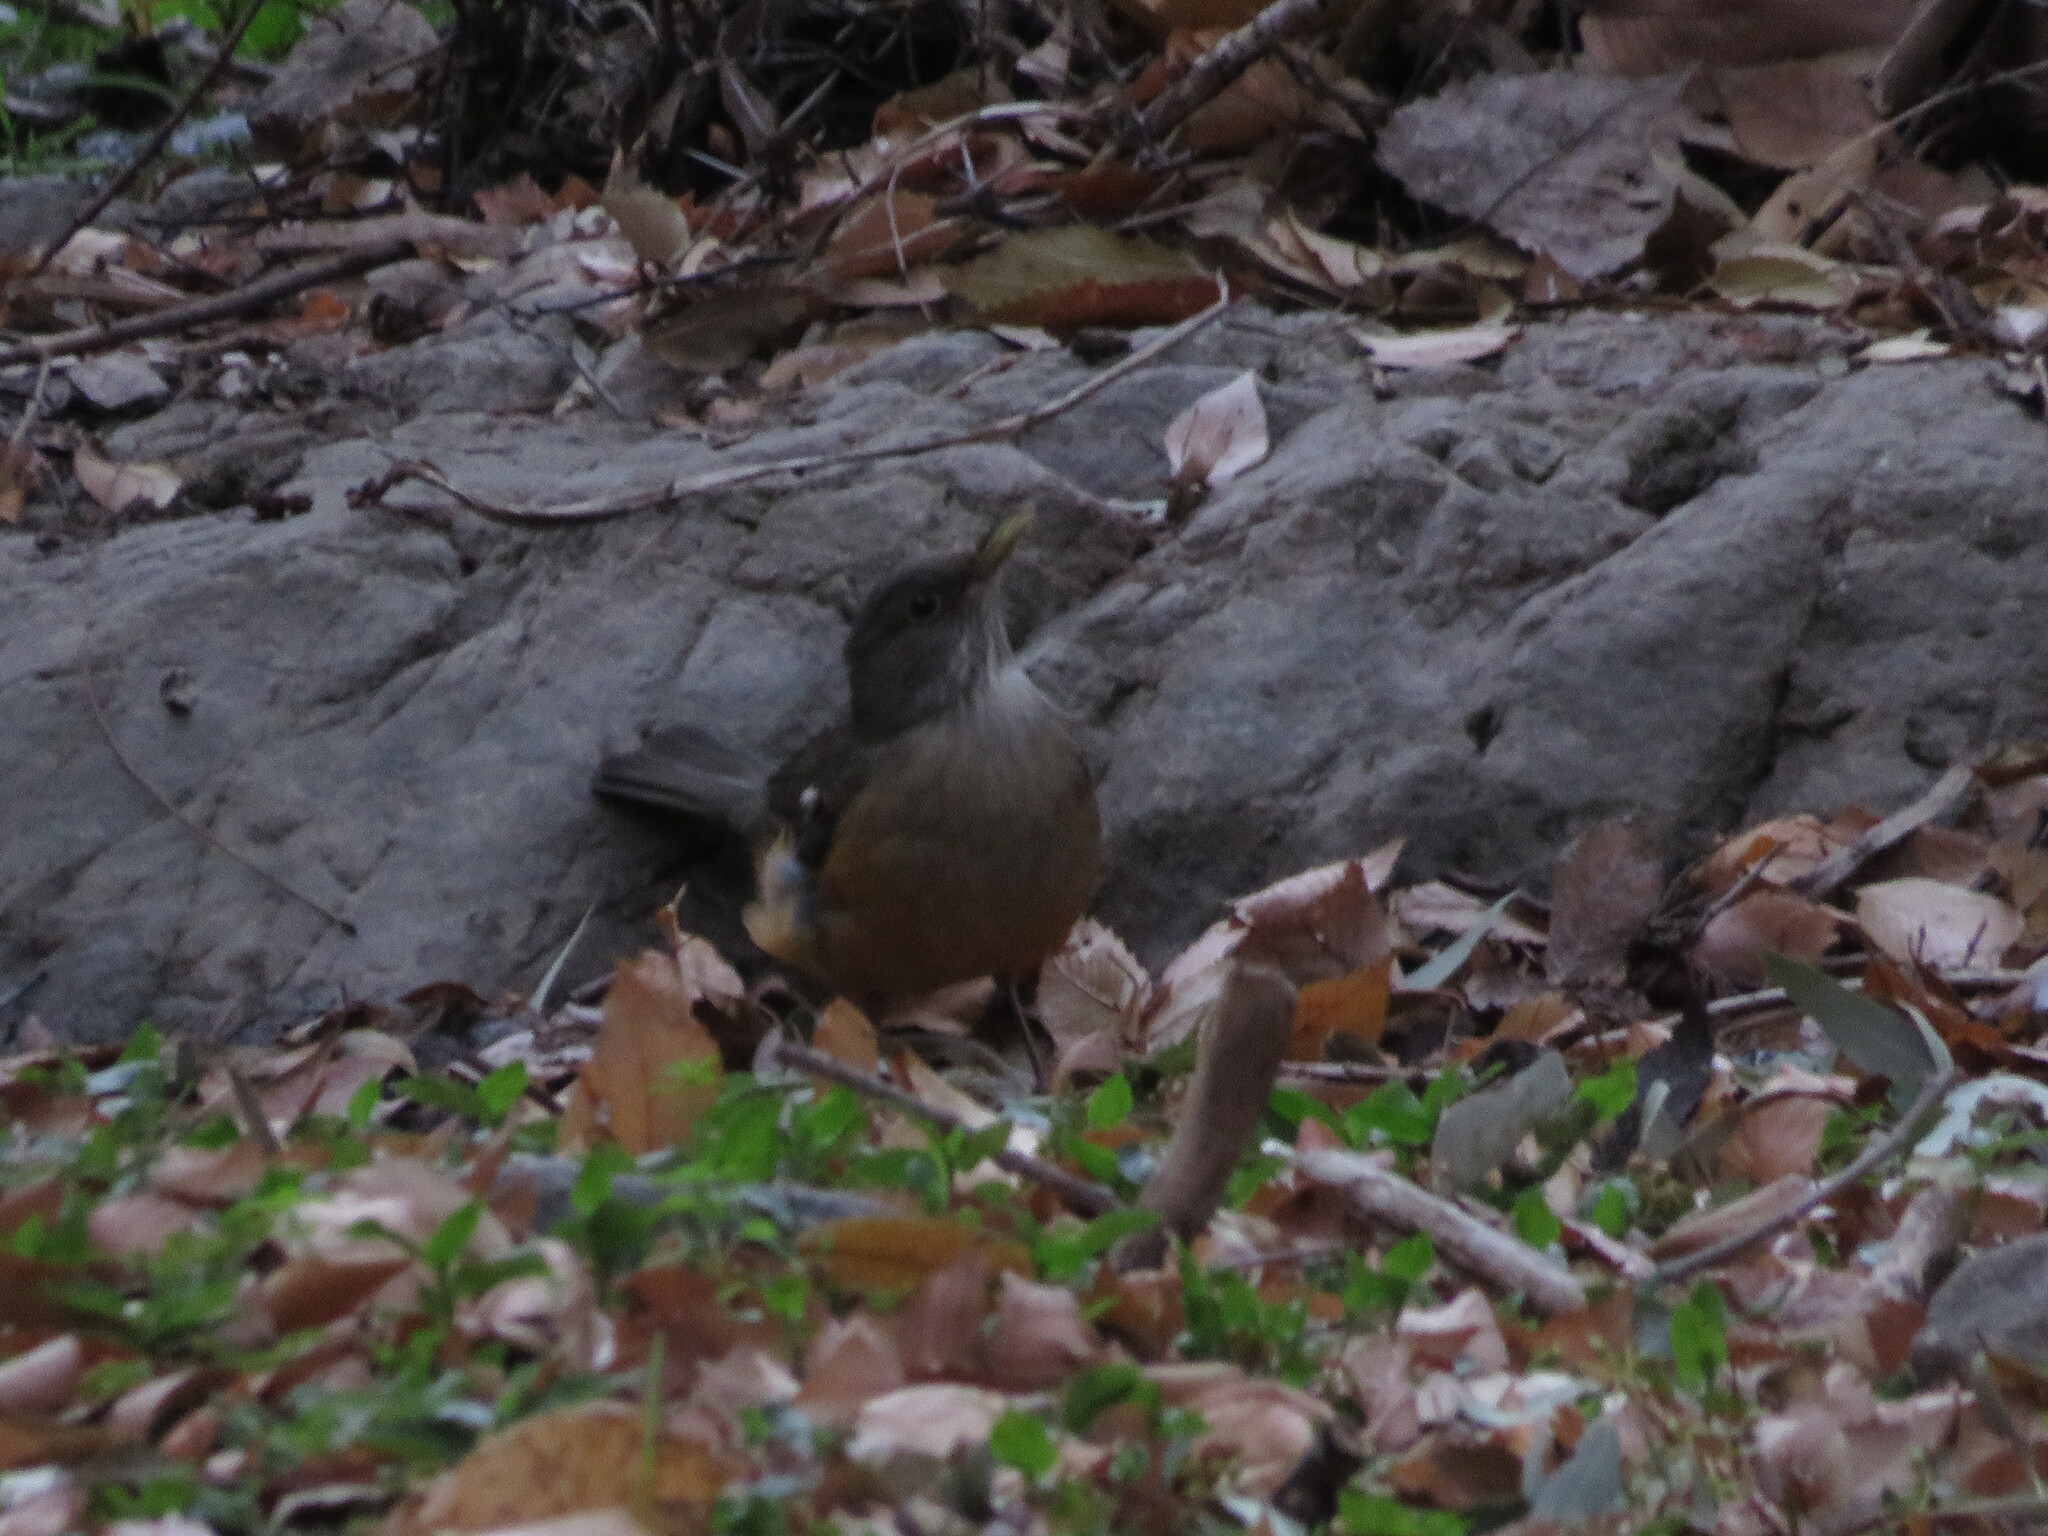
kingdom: Animalia
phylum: Chordata
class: Aves
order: Passeriformes
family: Turdidae
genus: Turdus
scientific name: Turdus rufiventris
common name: Rufous-bellied thrush
